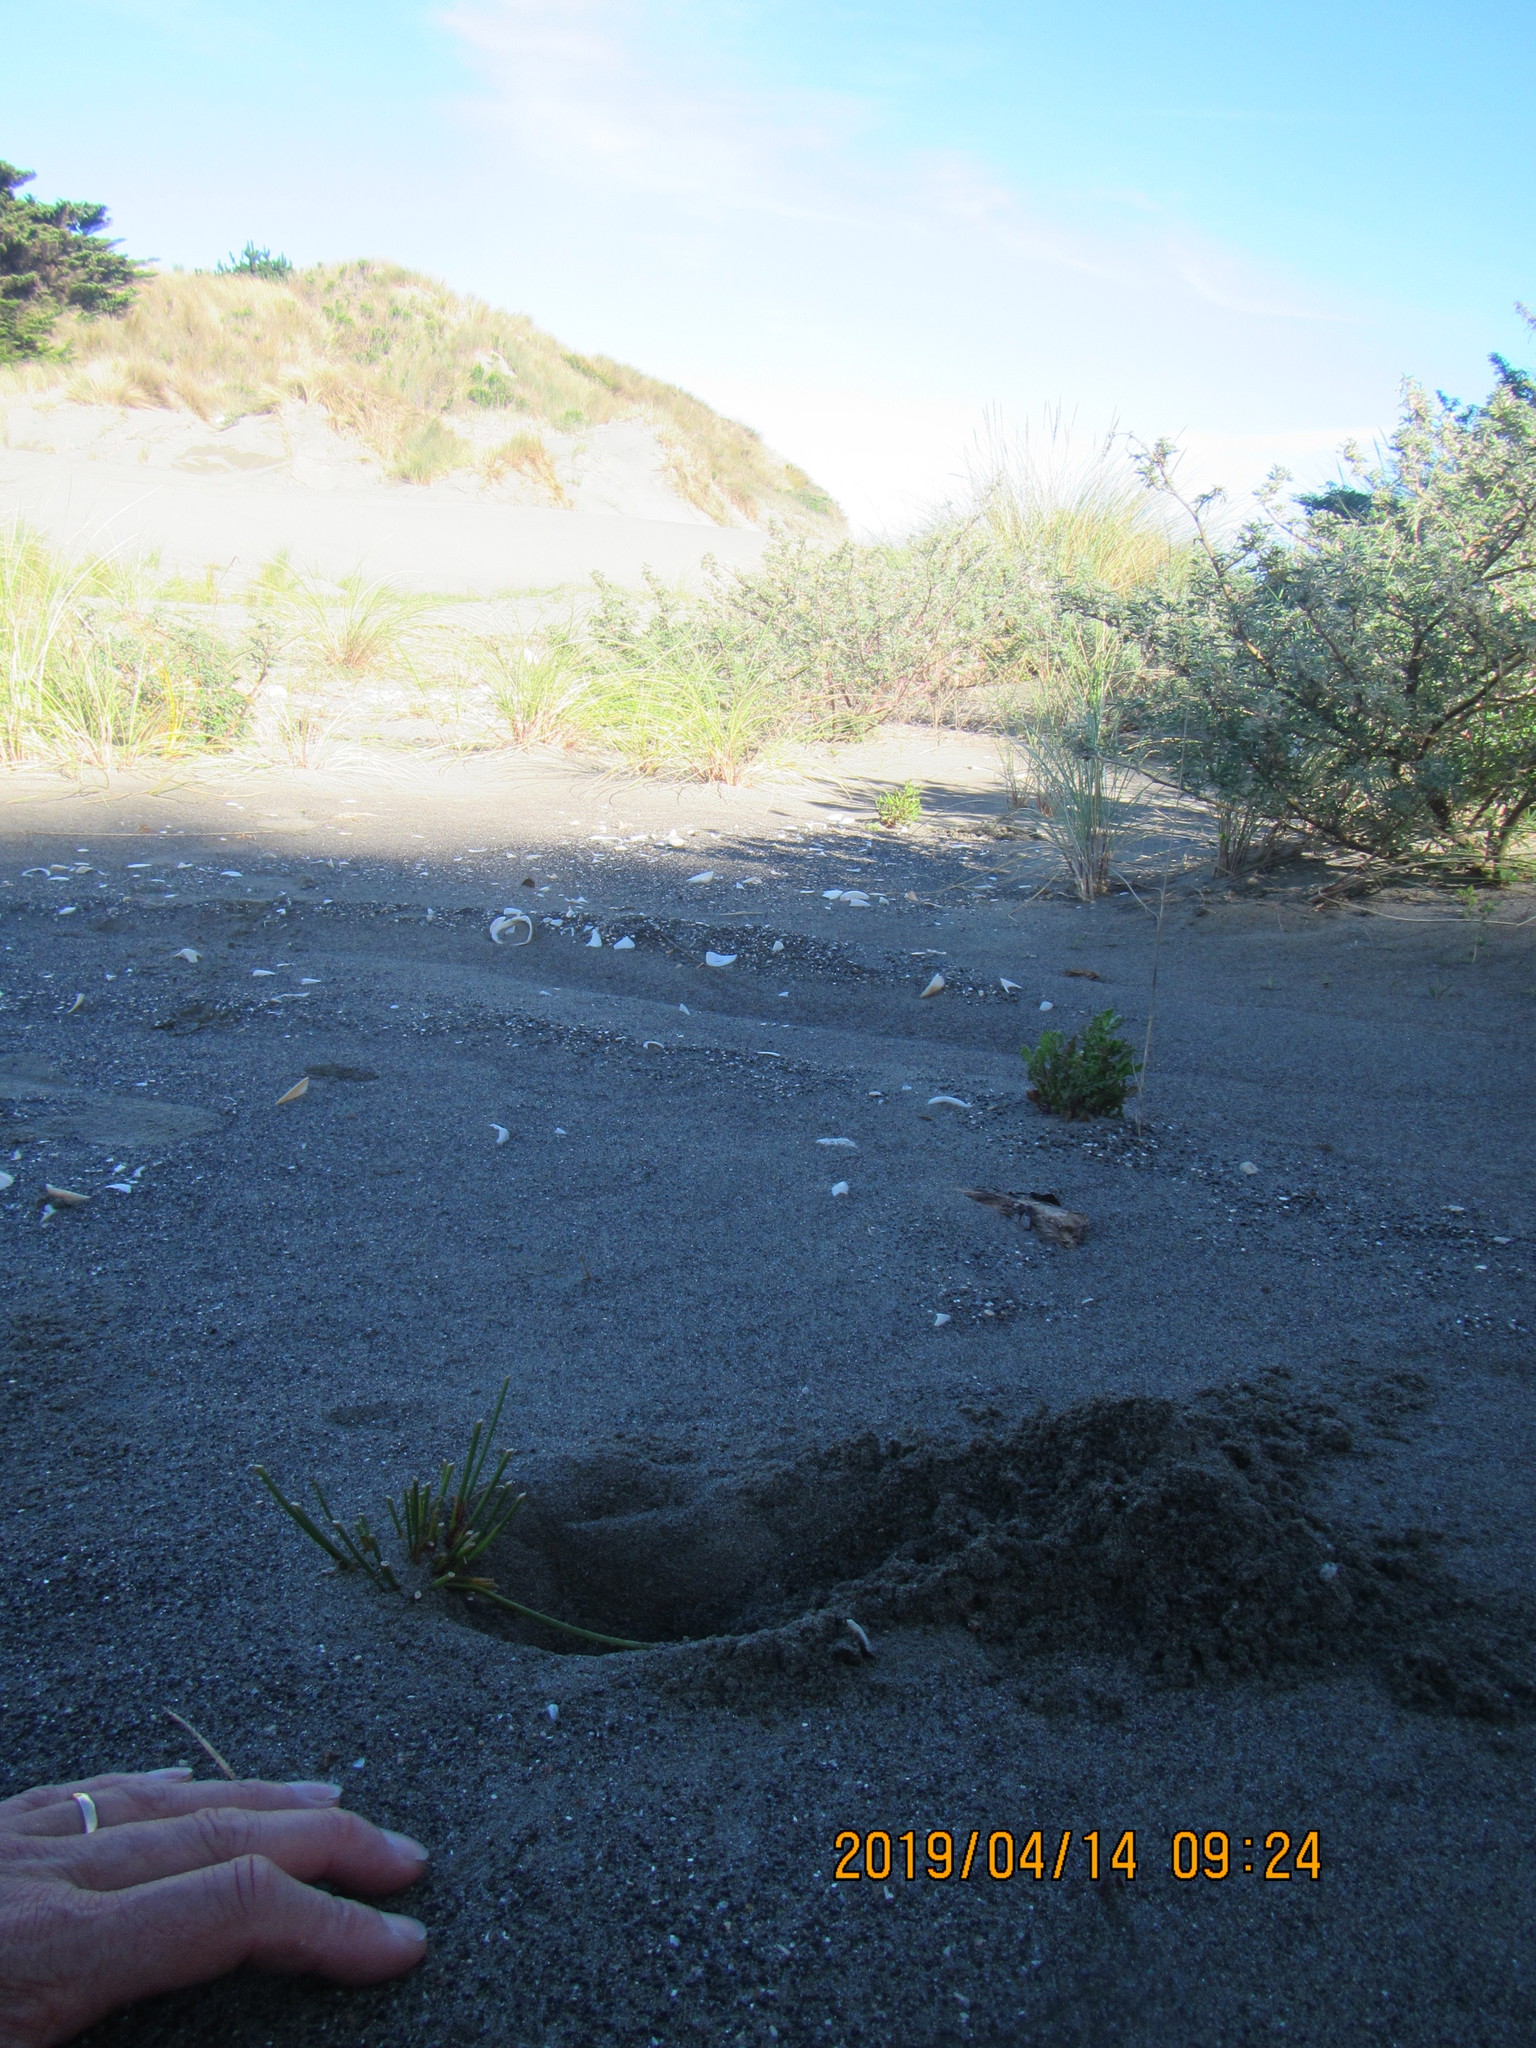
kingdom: Plantae
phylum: Tracheophyta
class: Liliopsida
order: Poales
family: Cyperaceae
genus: Ficinia
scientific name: Ficinia nodosa
